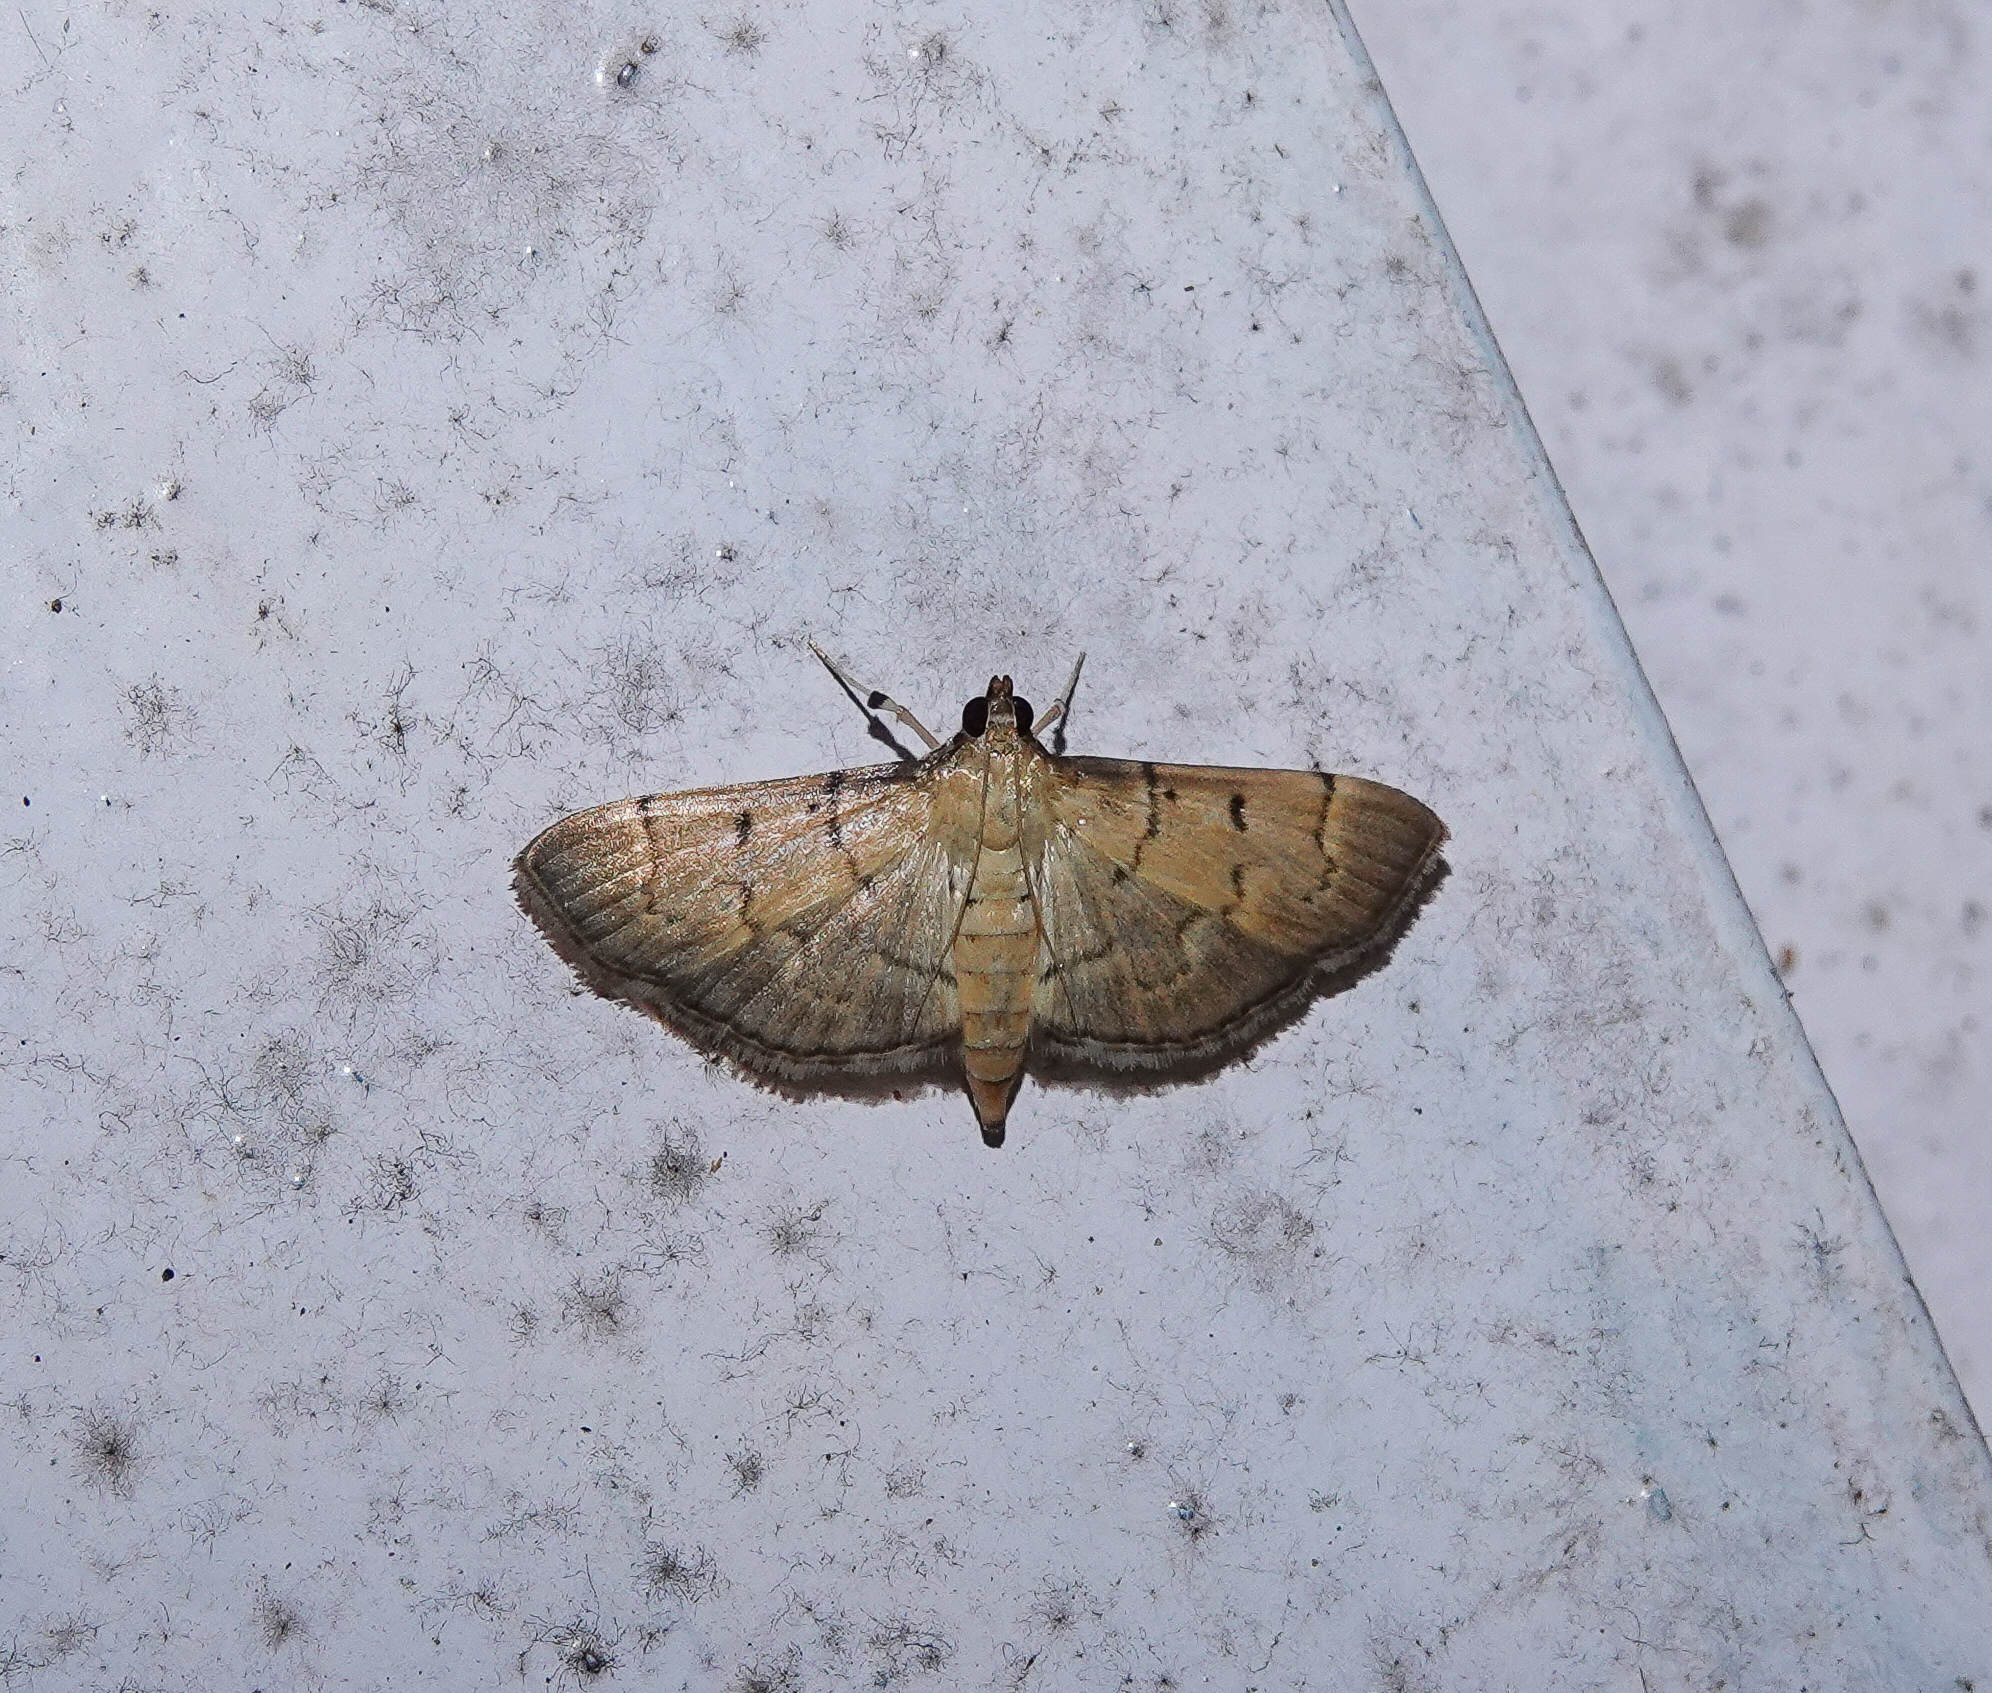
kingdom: Animalia
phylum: Arthropoda
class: Insecta
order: Lepidoptera
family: Crambidae
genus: Herpetogramma
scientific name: Herpetogramma rudis
